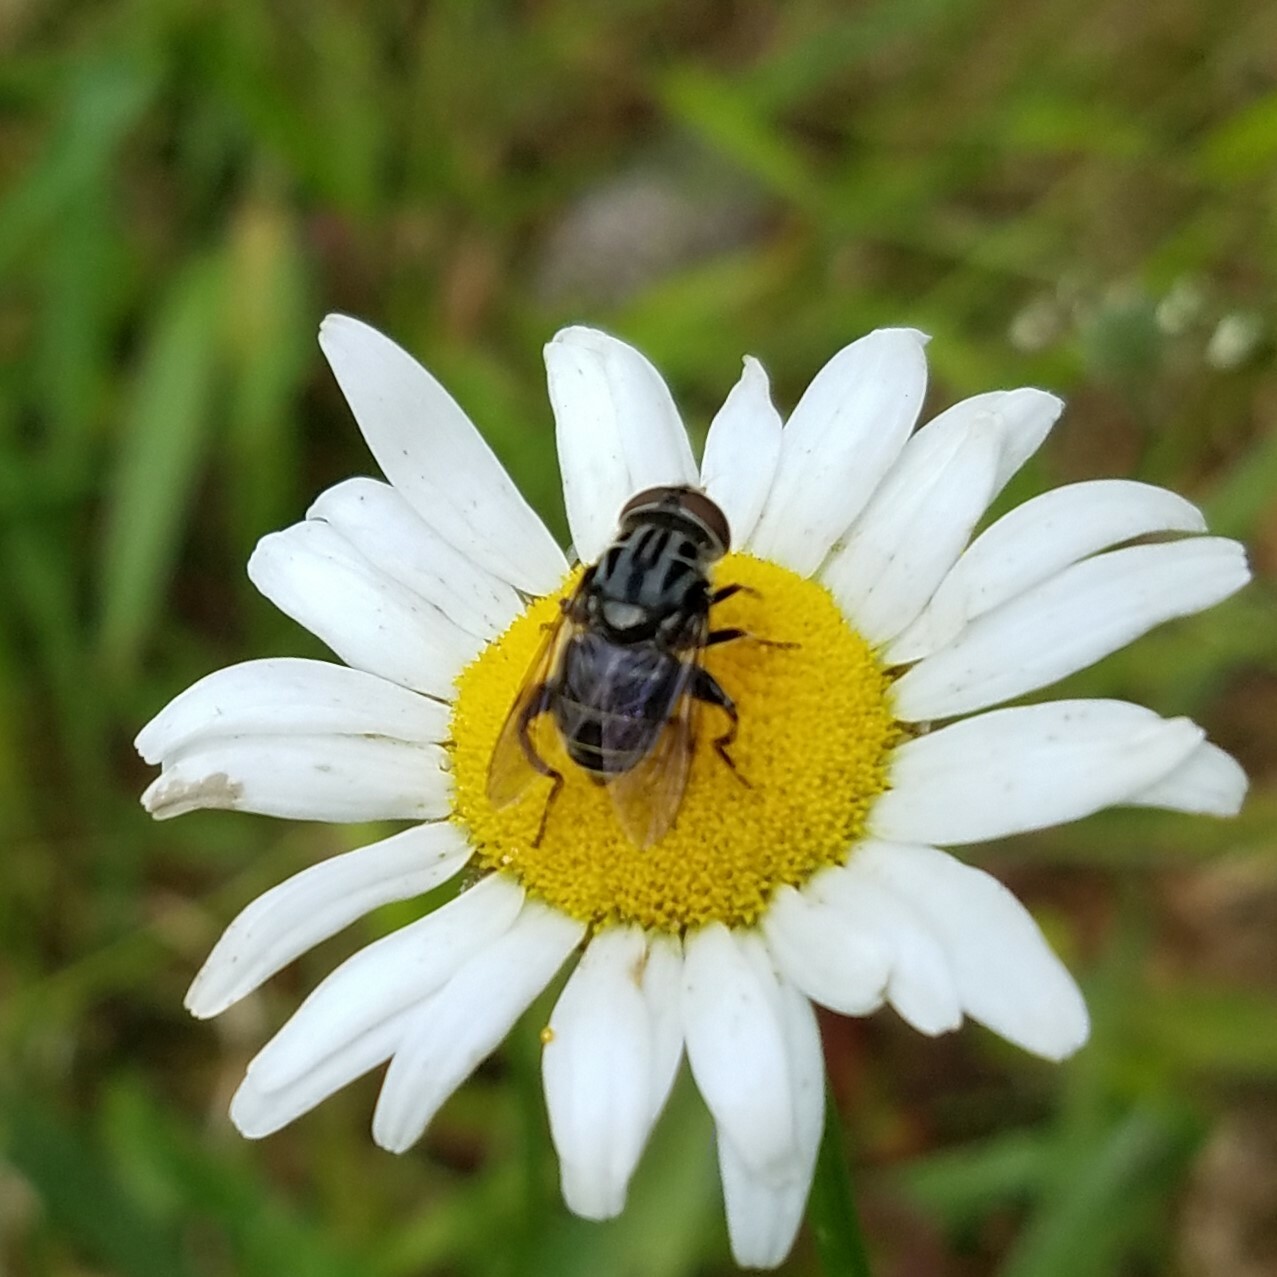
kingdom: Animalia
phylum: Arthropoda
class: Insecta
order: Diptera
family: Syrphidae
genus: Palpada
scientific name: Palpada furcata
